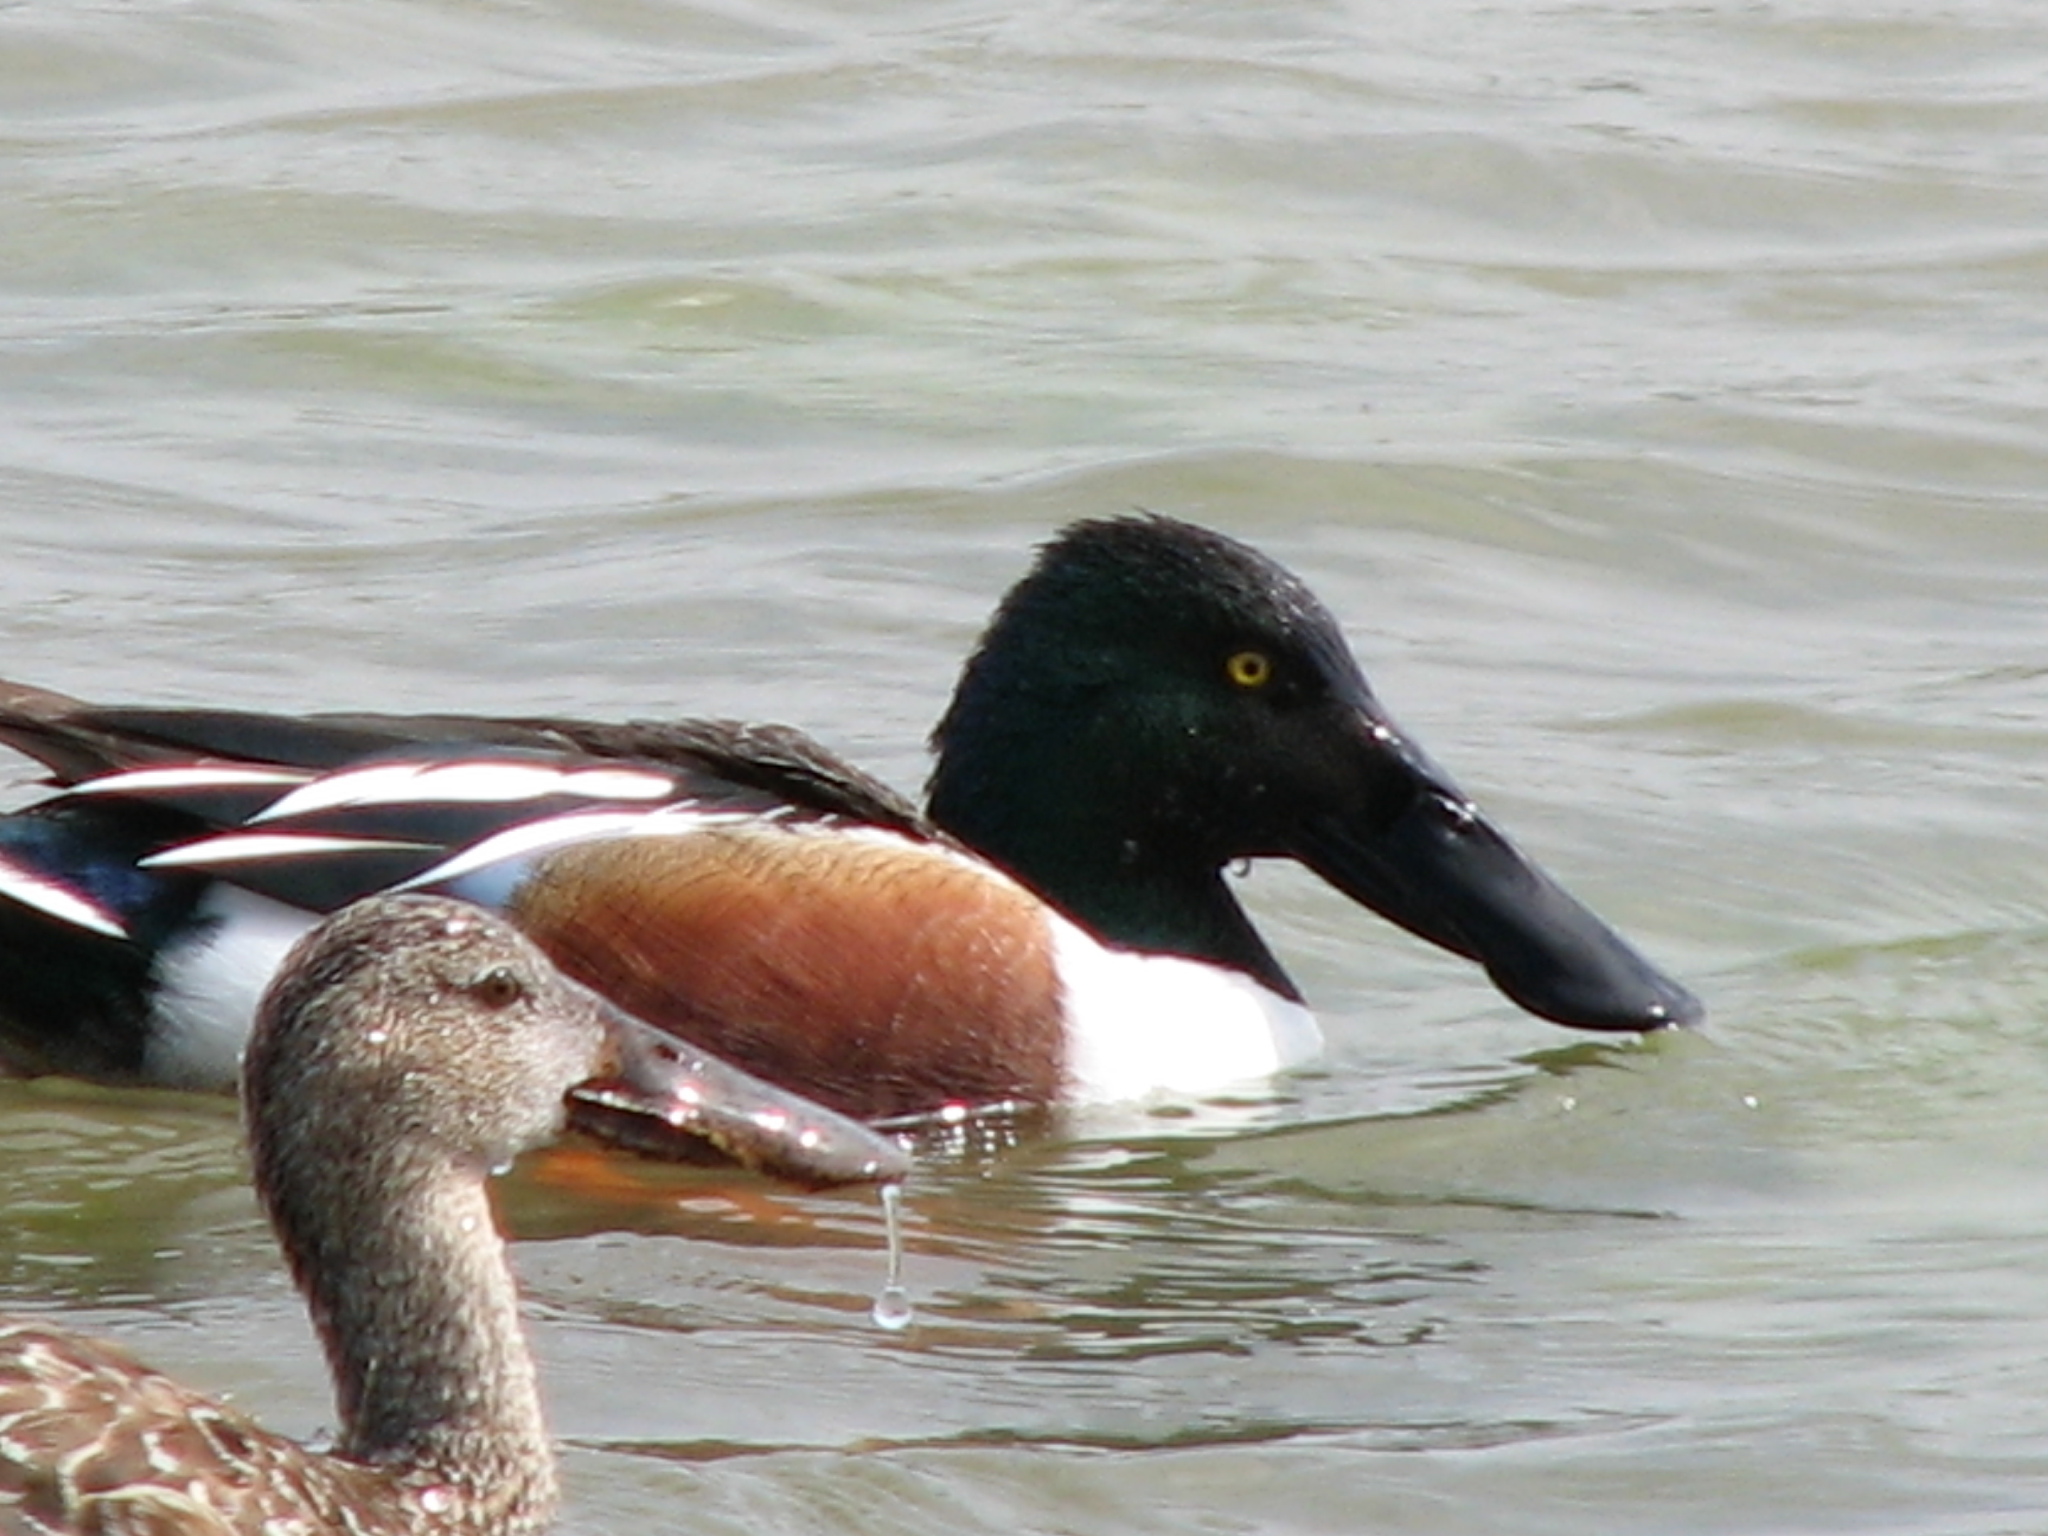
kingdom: Animalia
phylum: Chordata
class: Aves
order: Anseriformes
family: Anatidae
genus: Spatula
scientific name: Spatula clypeata
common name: Northern shoveler
